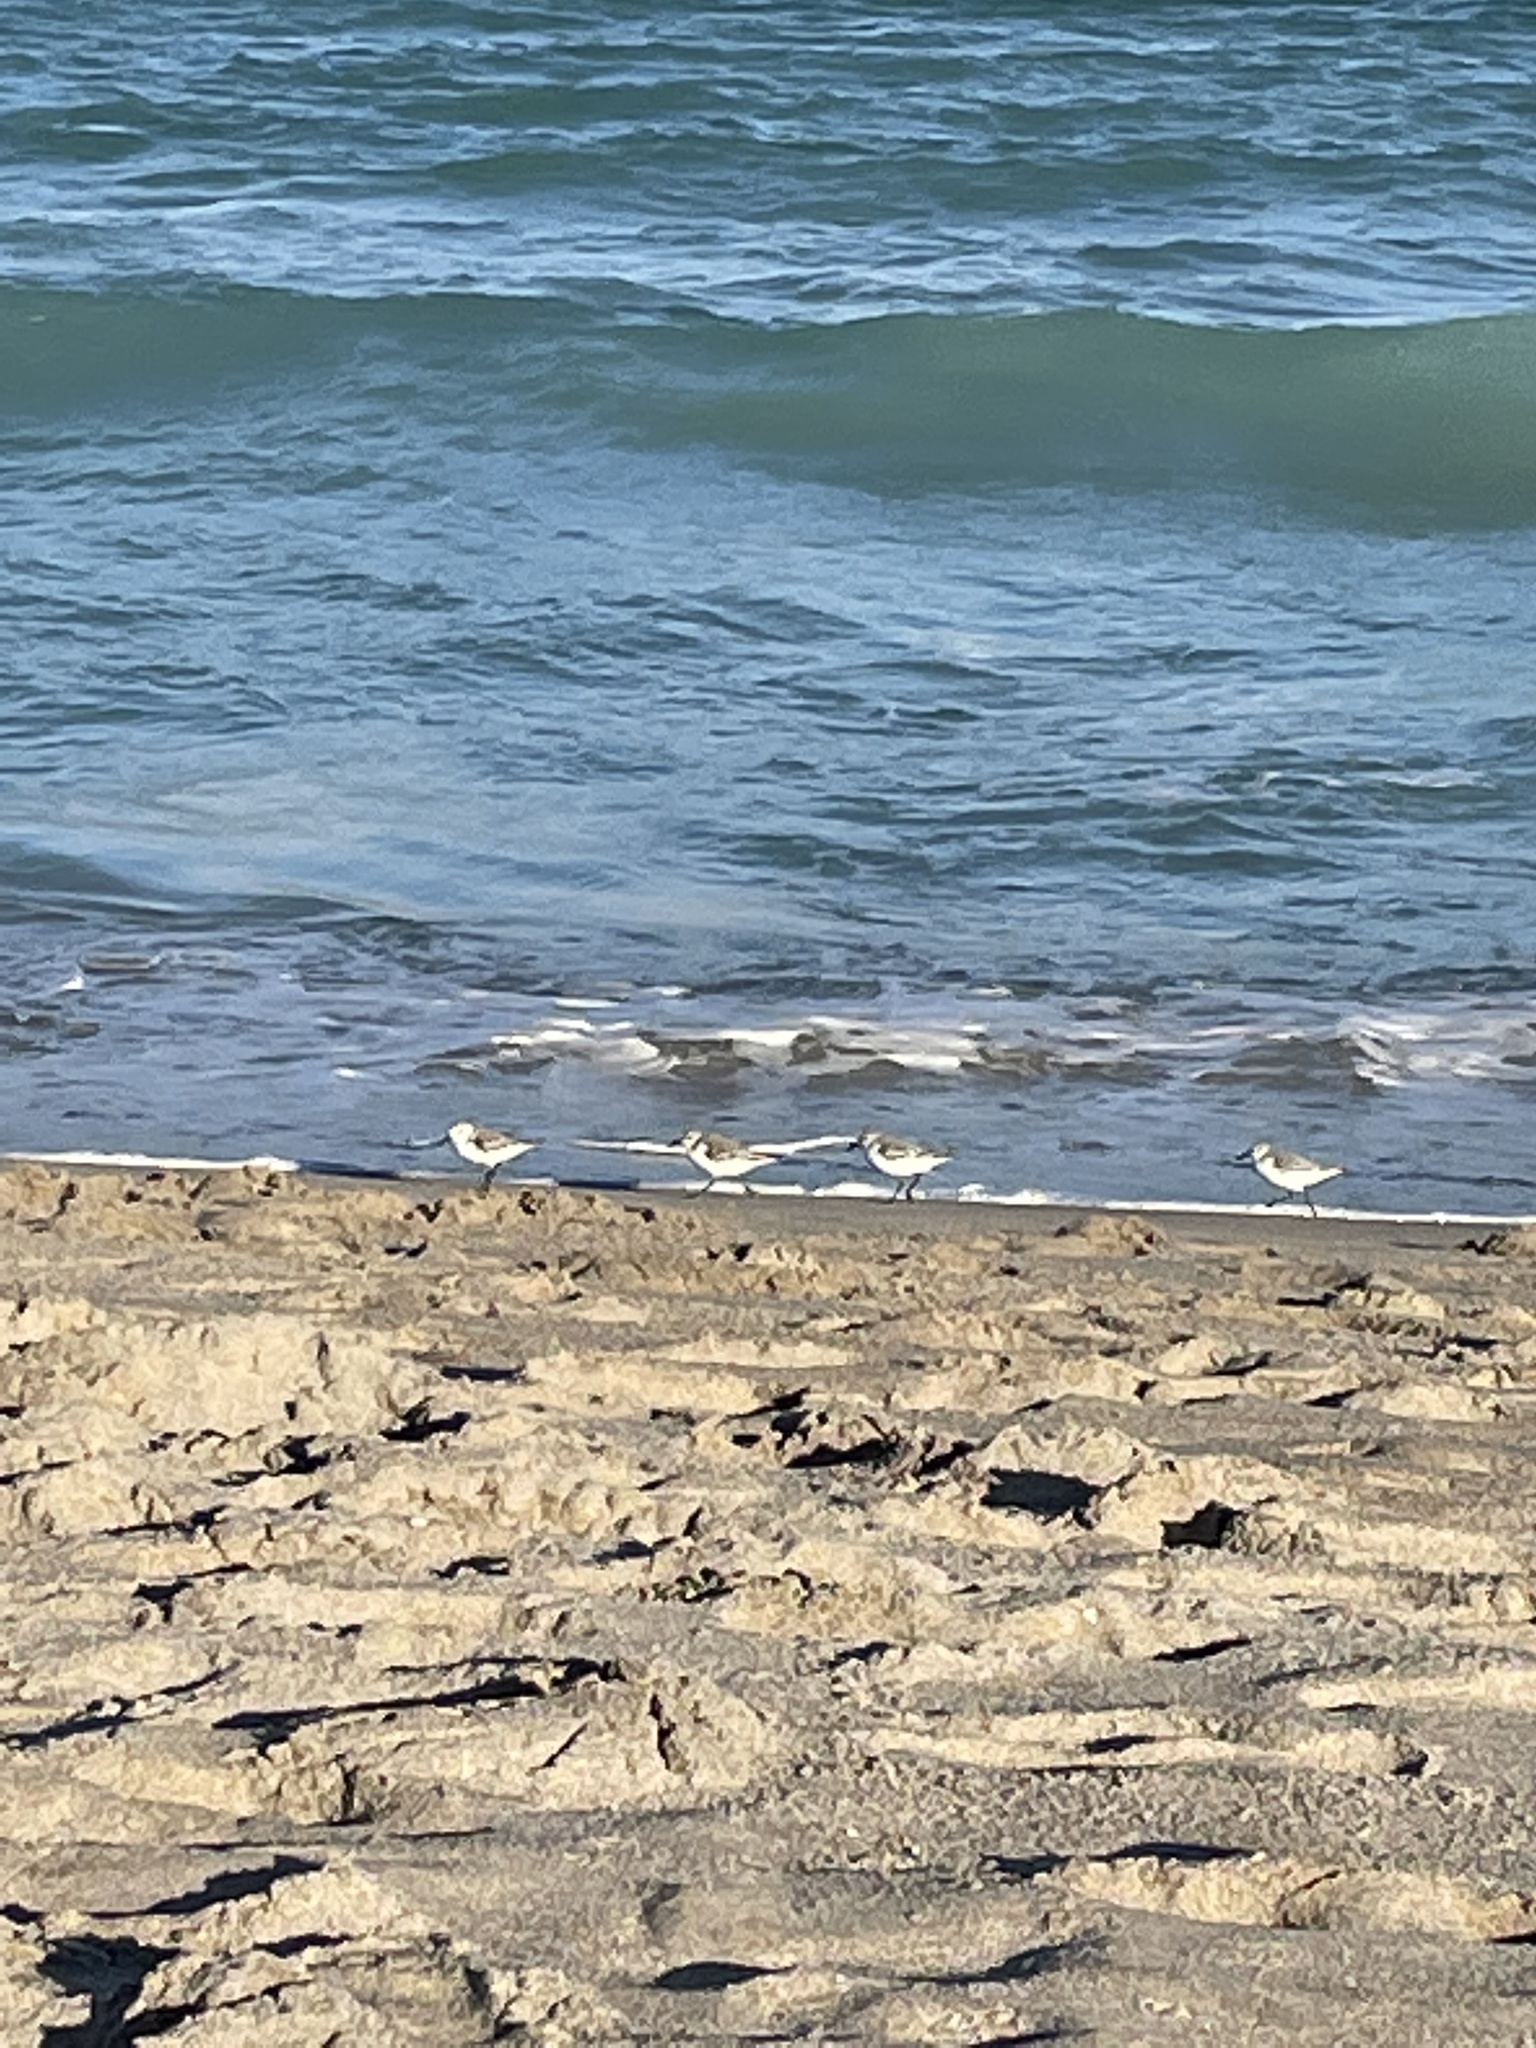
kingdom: Animalia
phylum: Chordata
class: Aves
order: Charadriiformes
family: Scolopacidae
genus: Calidris
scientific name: Calidris alba
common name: Sanderling
